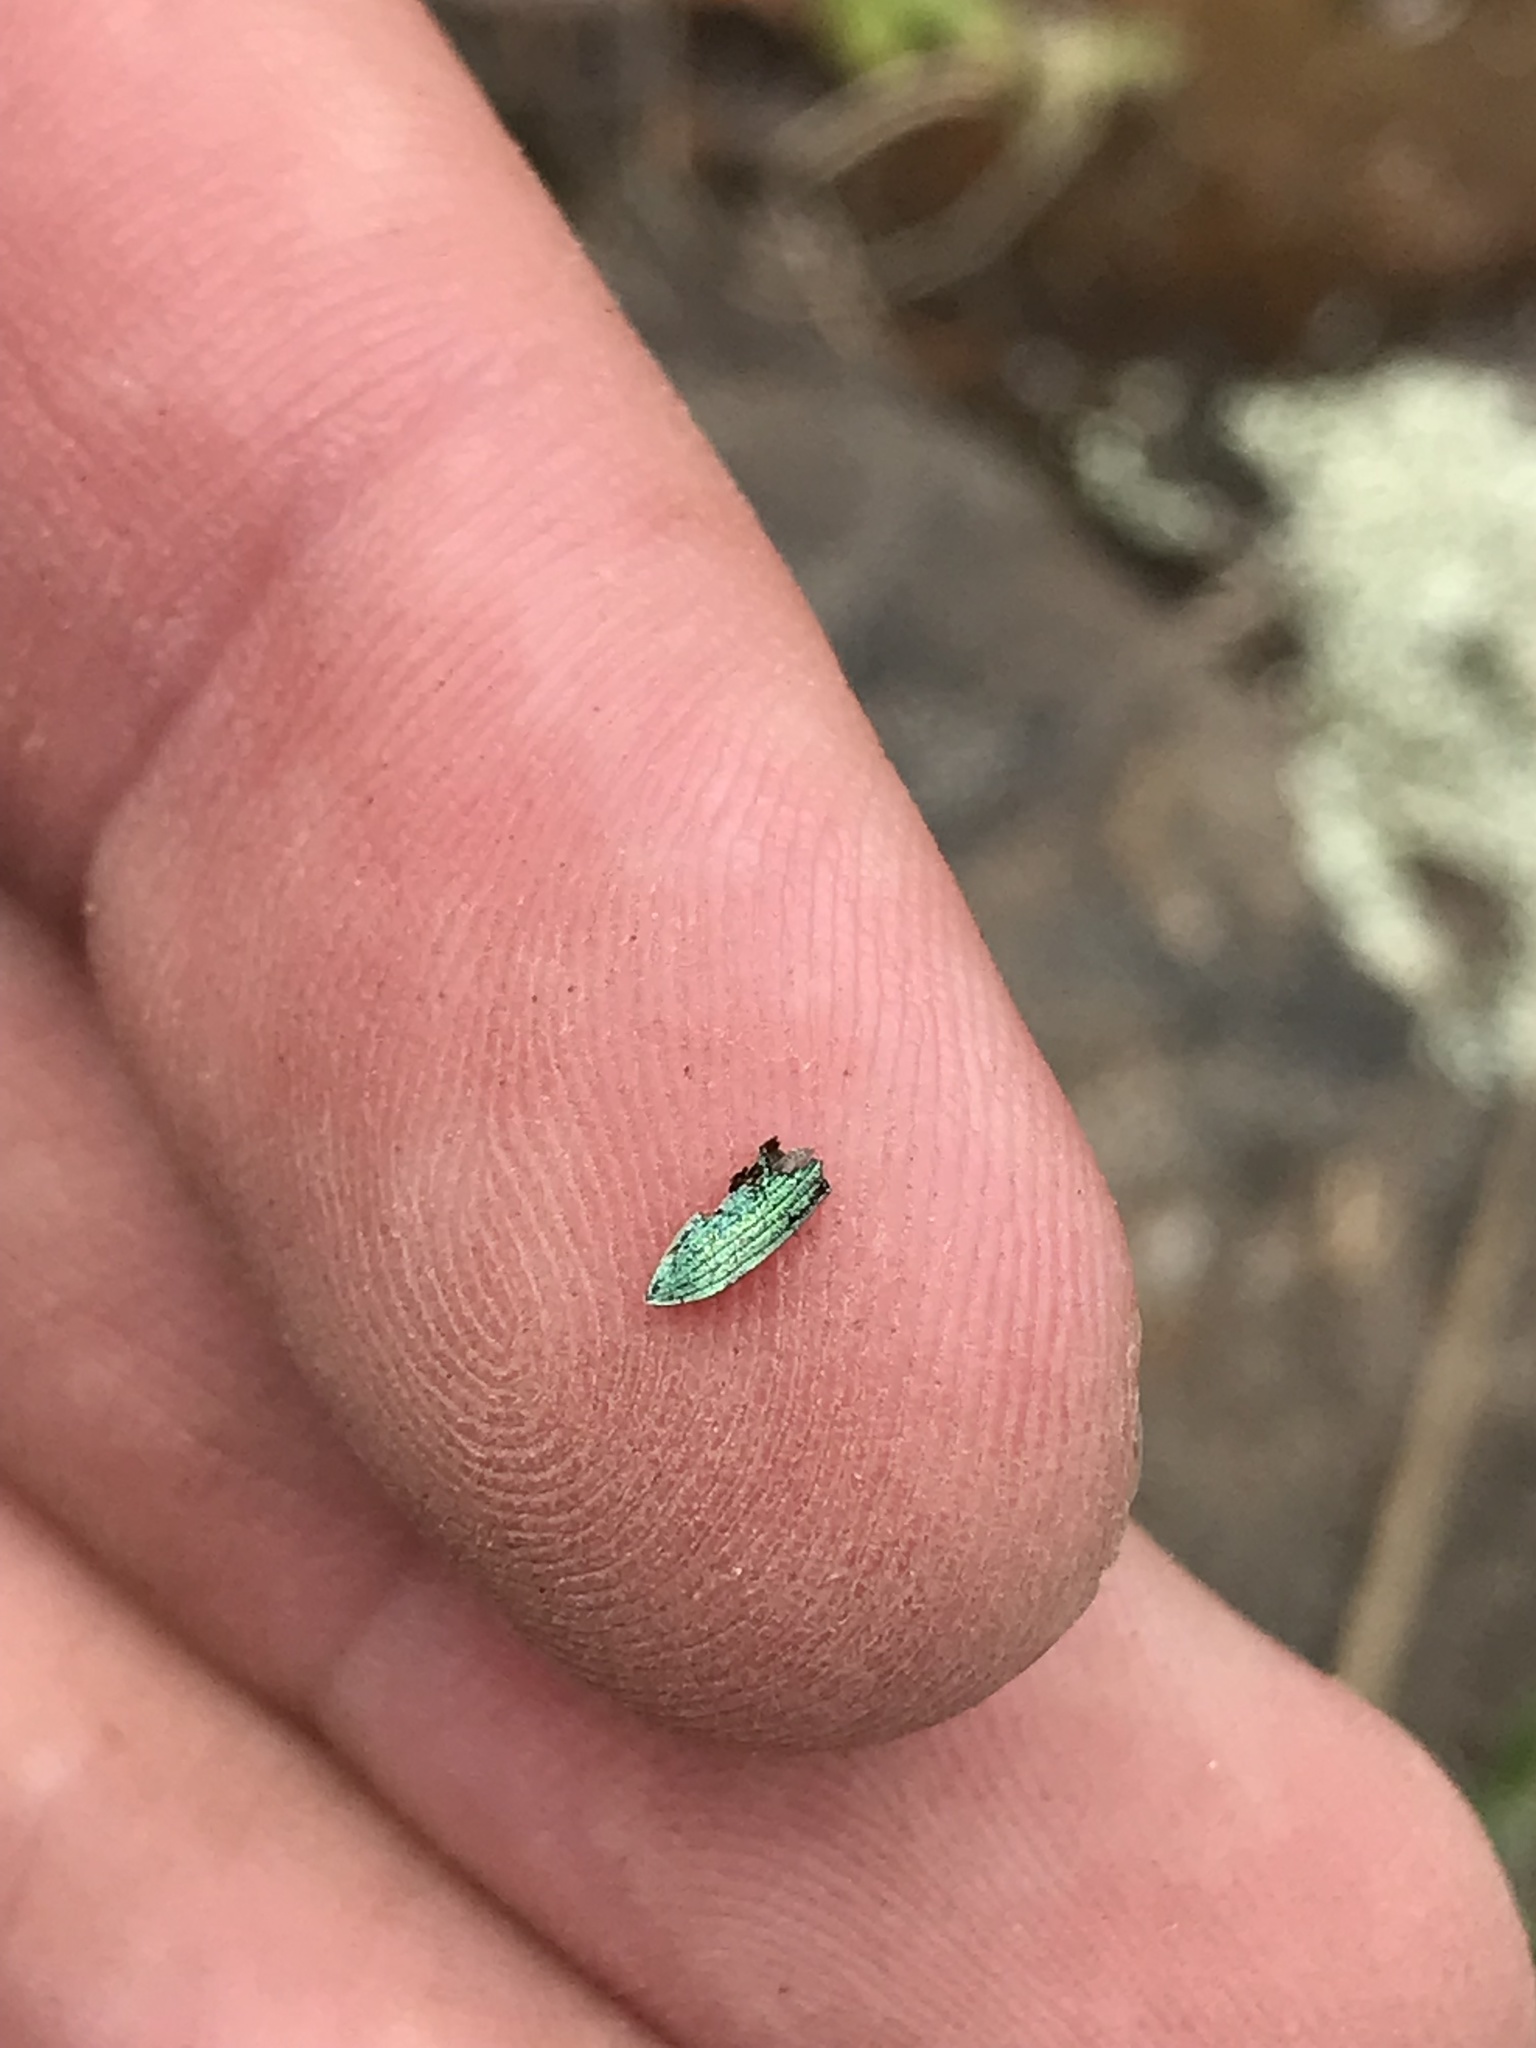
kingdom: Animalia
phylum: Arthropoda
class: Insecta
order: Coleoptera
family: Curculionidae
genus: Polydrusus
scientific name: Polydrusus formosus
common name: Weevil
